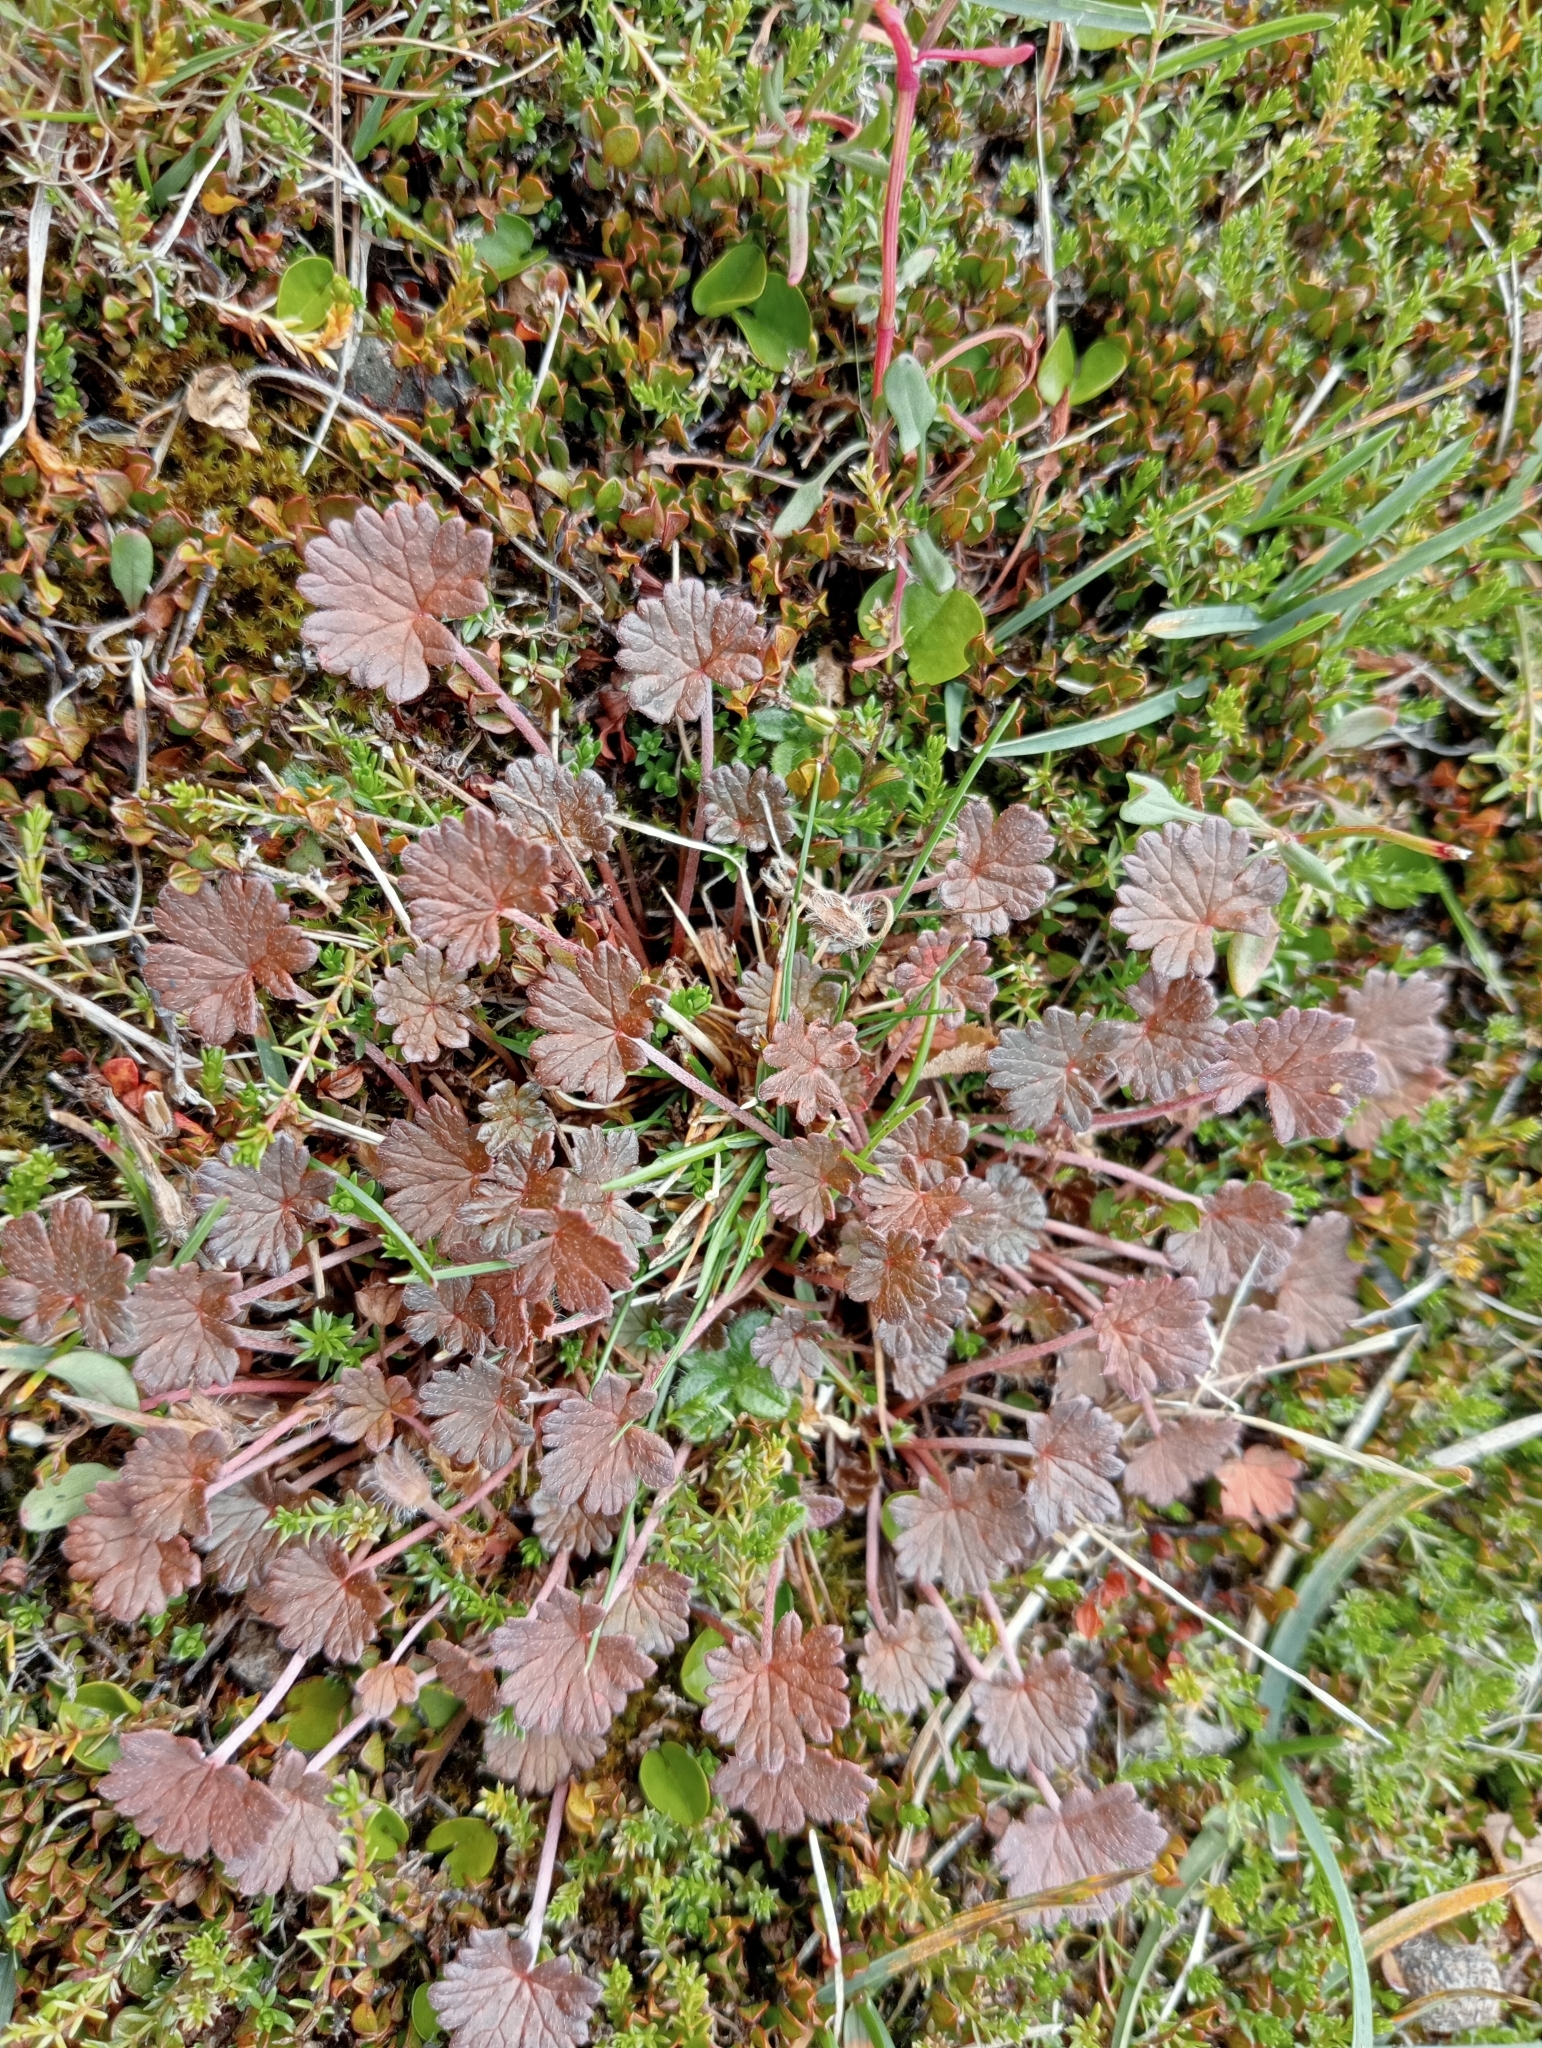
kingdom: Plantae
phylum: Tracheophyta
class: Magnoliopsida
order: Geraniales
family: Geraniaceae
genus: Geranium
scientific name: Geranium brevicaule
